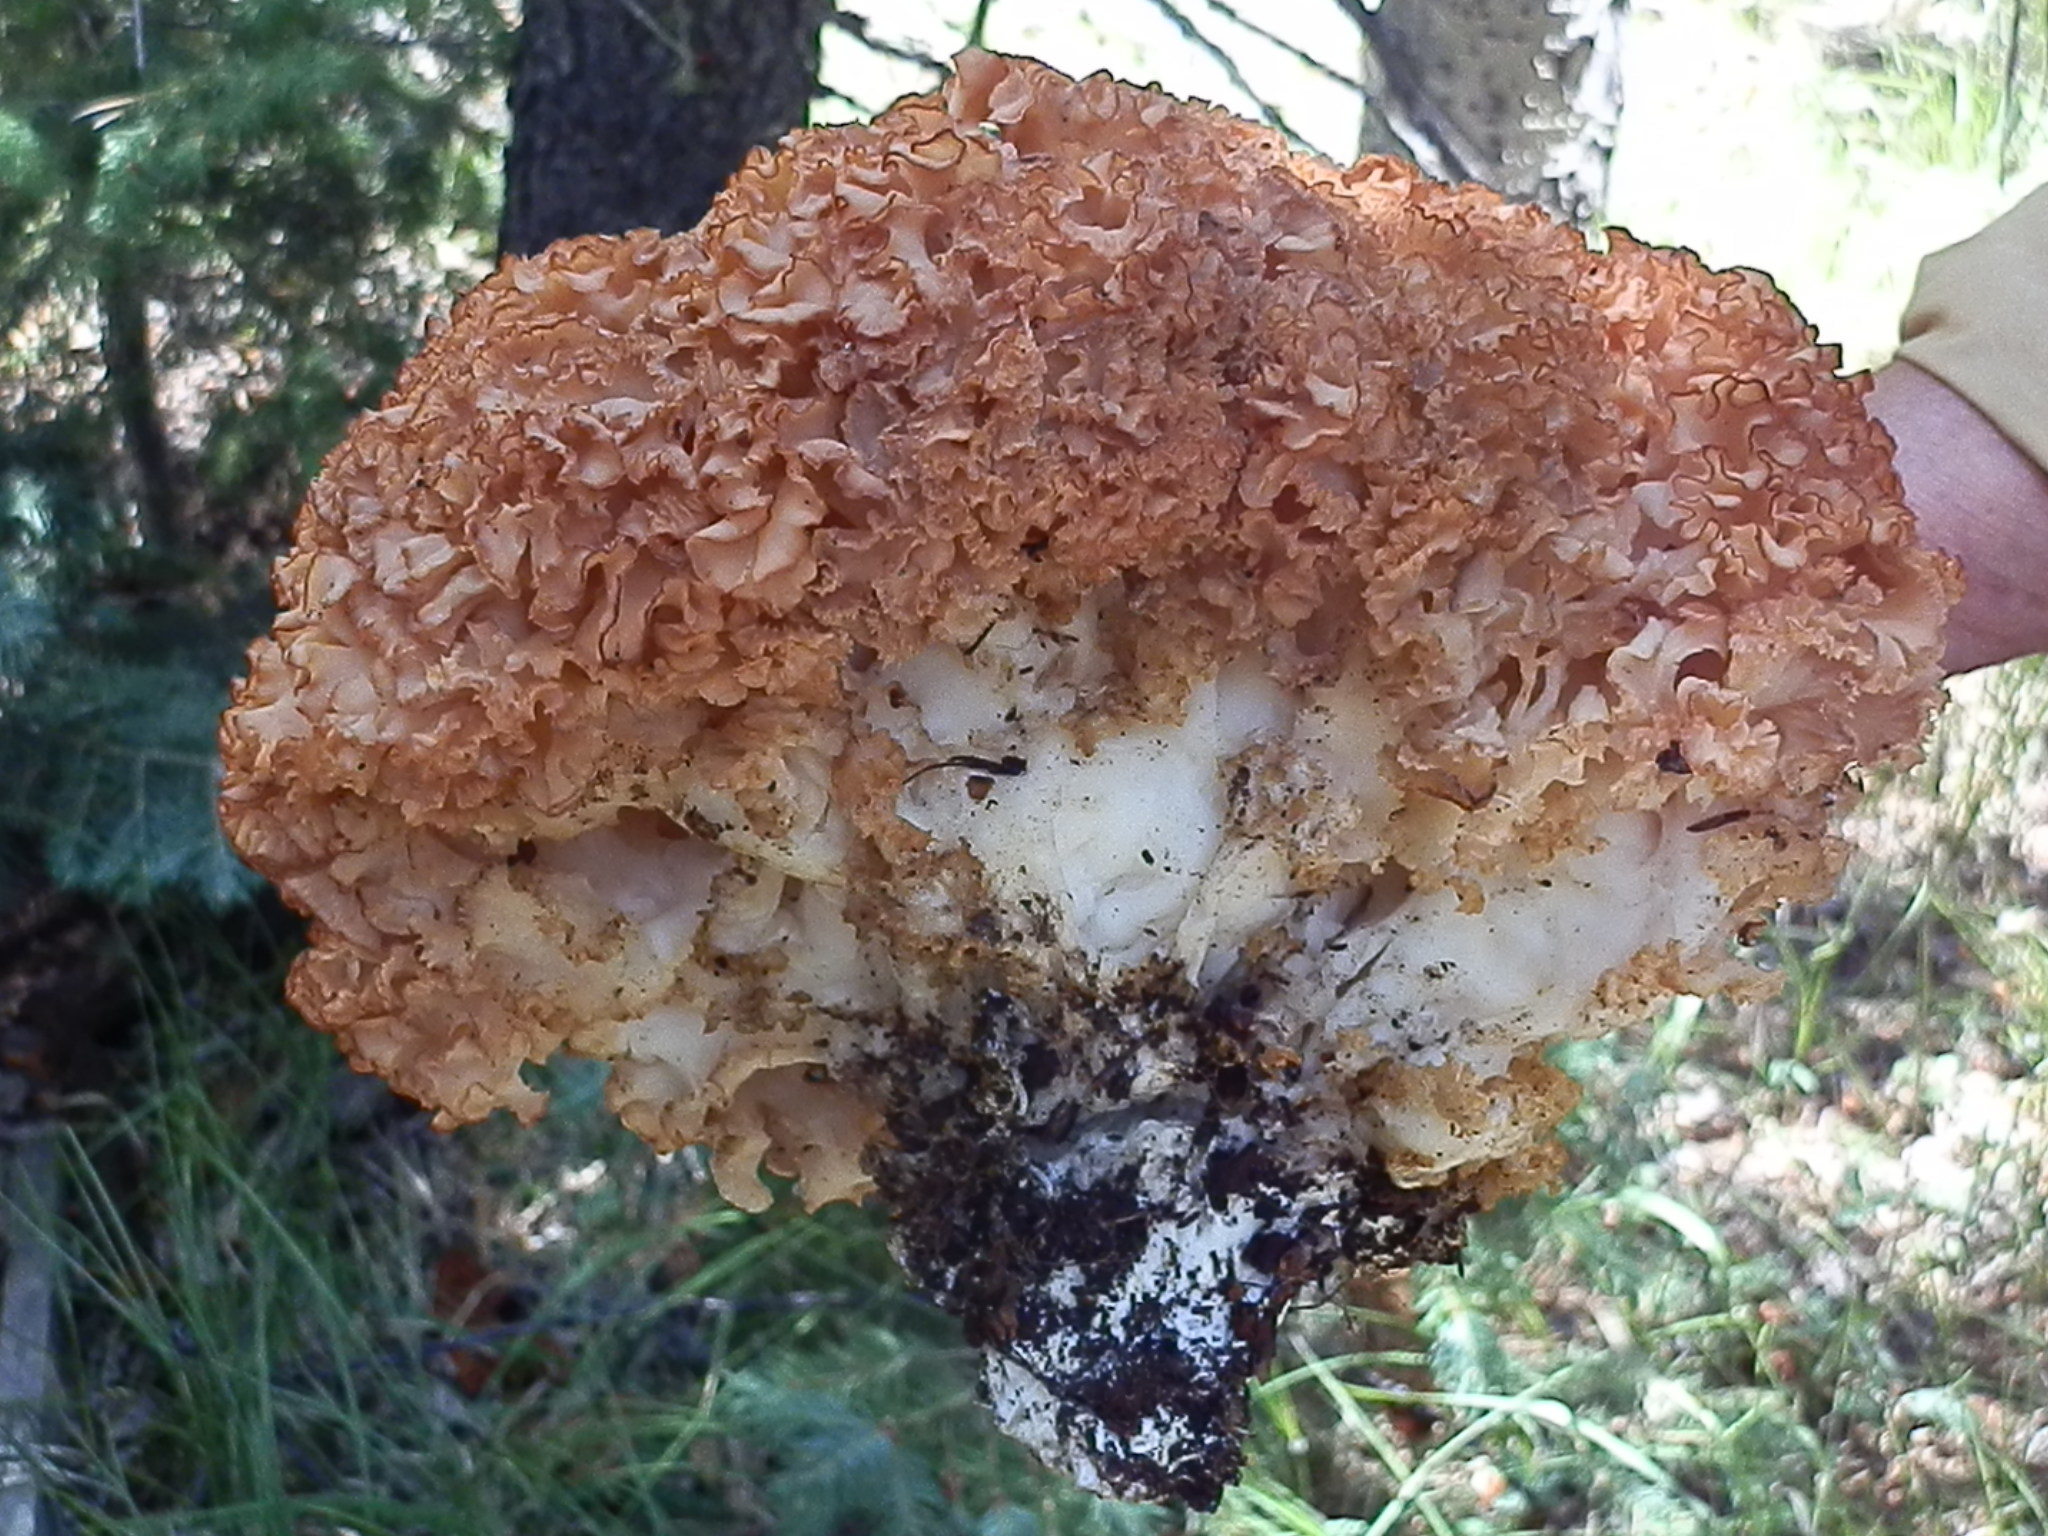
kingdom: Fungi
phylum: Basidiomycota
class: Agaricomycetes
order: Polyporales
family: Sparassidaceae
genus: Sparassis
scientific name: Sparassis americana
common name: American cauliflower mushroom
